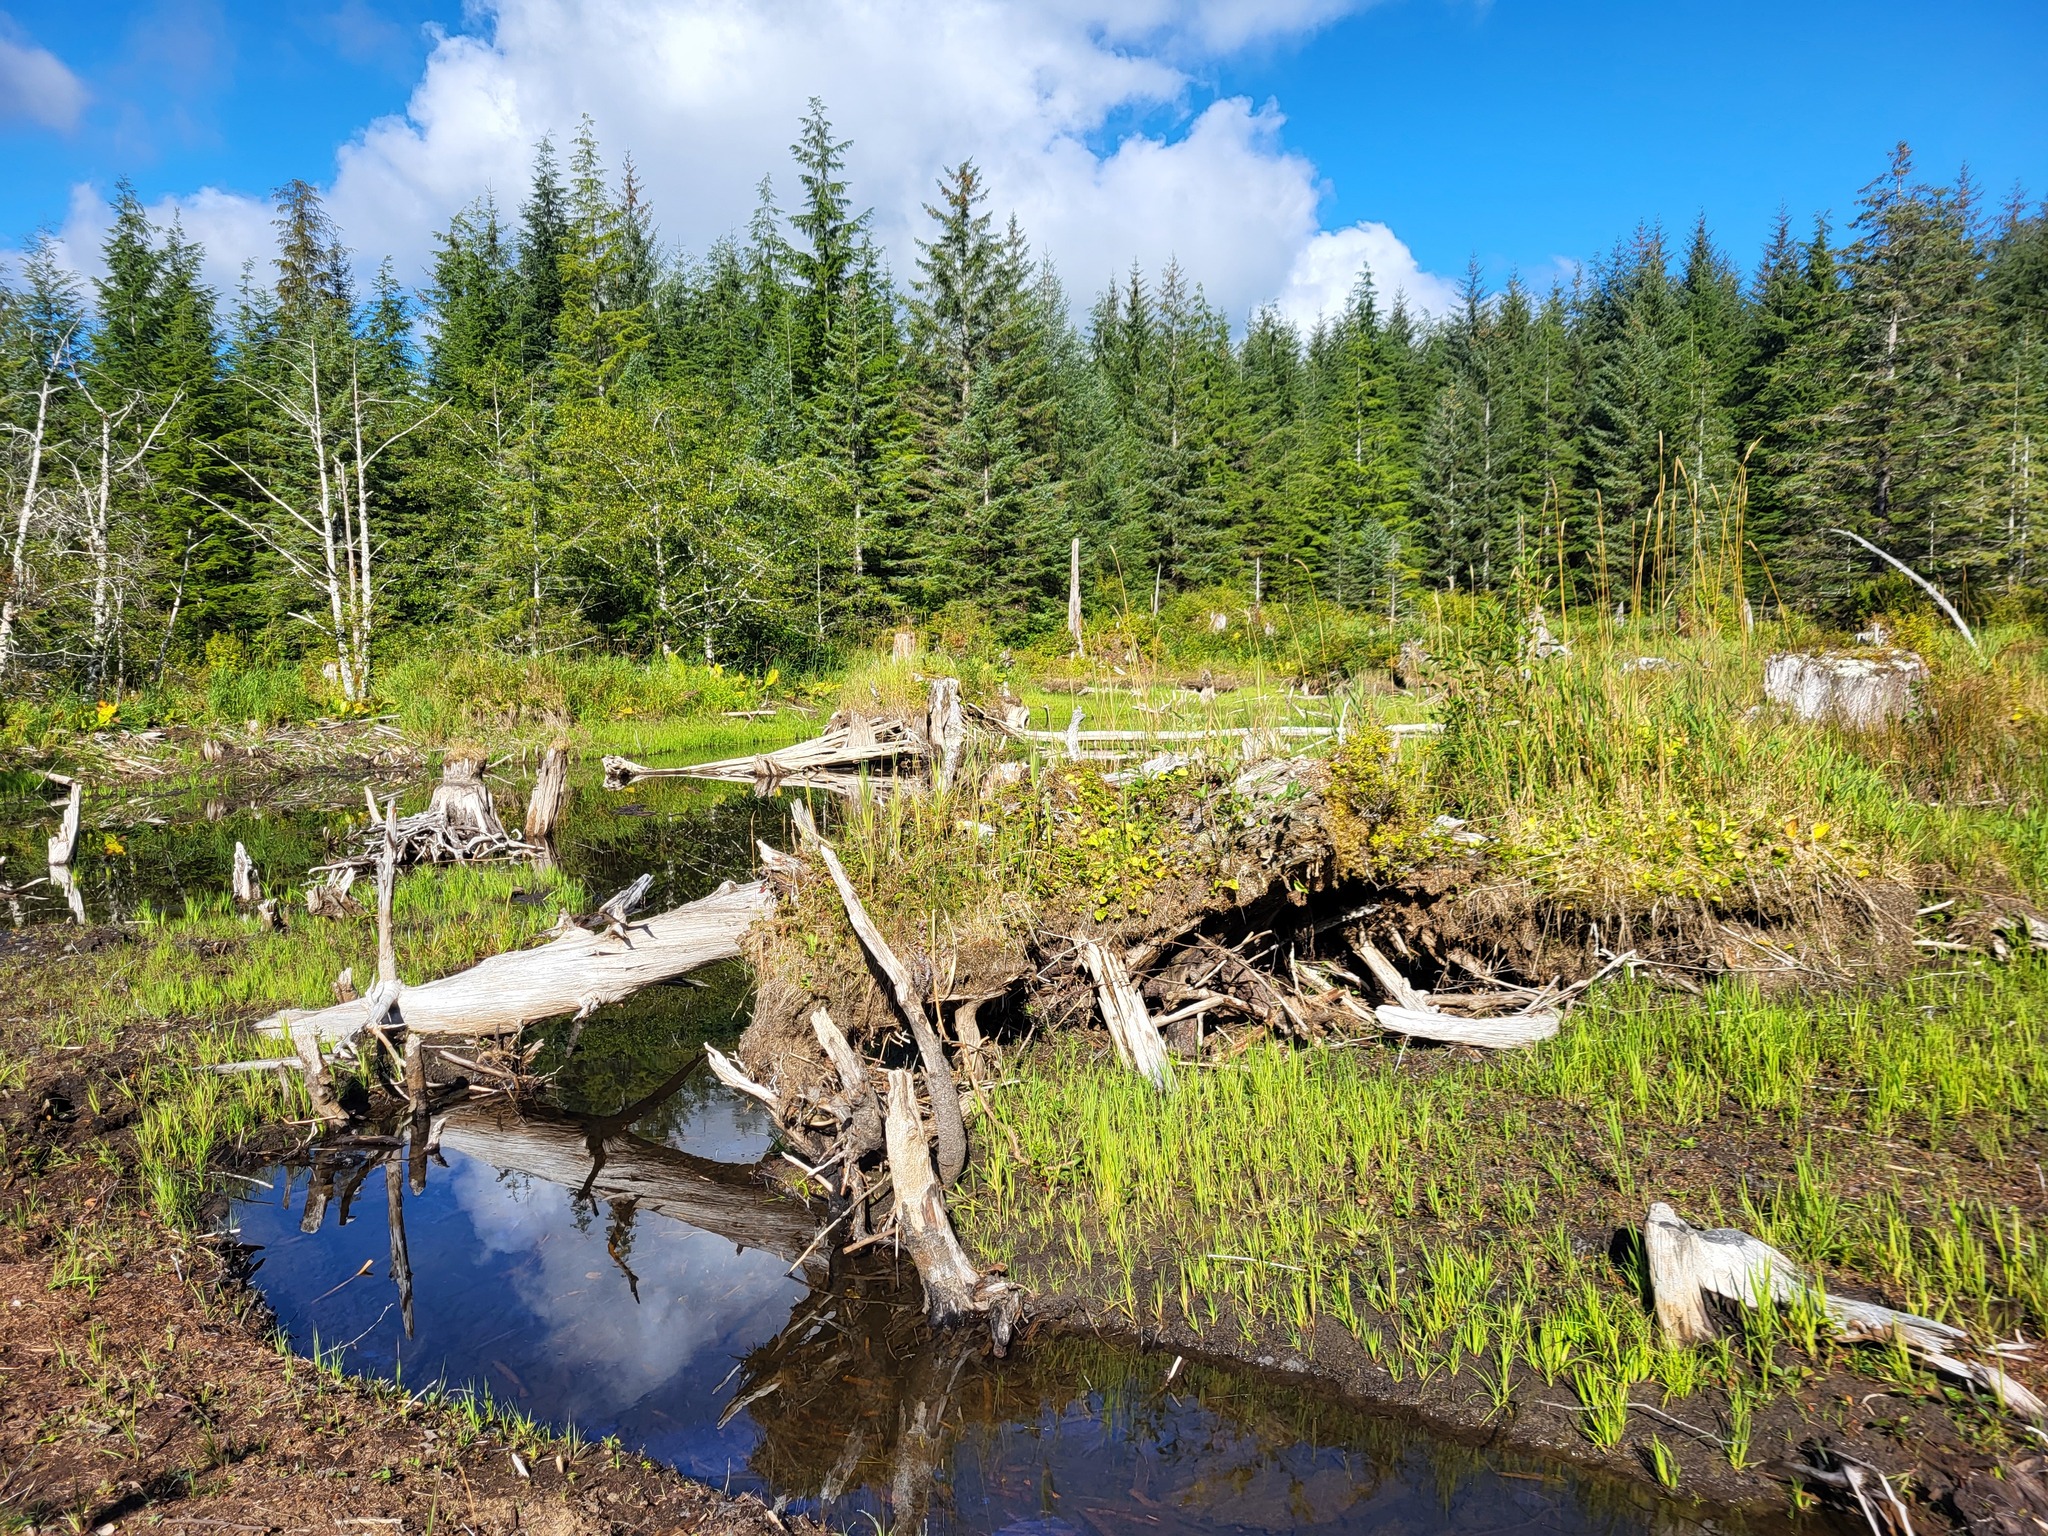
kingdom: Plantae
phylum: Tracheophyta
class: Liliopsida
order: Poales
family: Poaceae
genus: Phalaris
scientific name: Phalaris arundinacea
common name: Reed canary-grass
